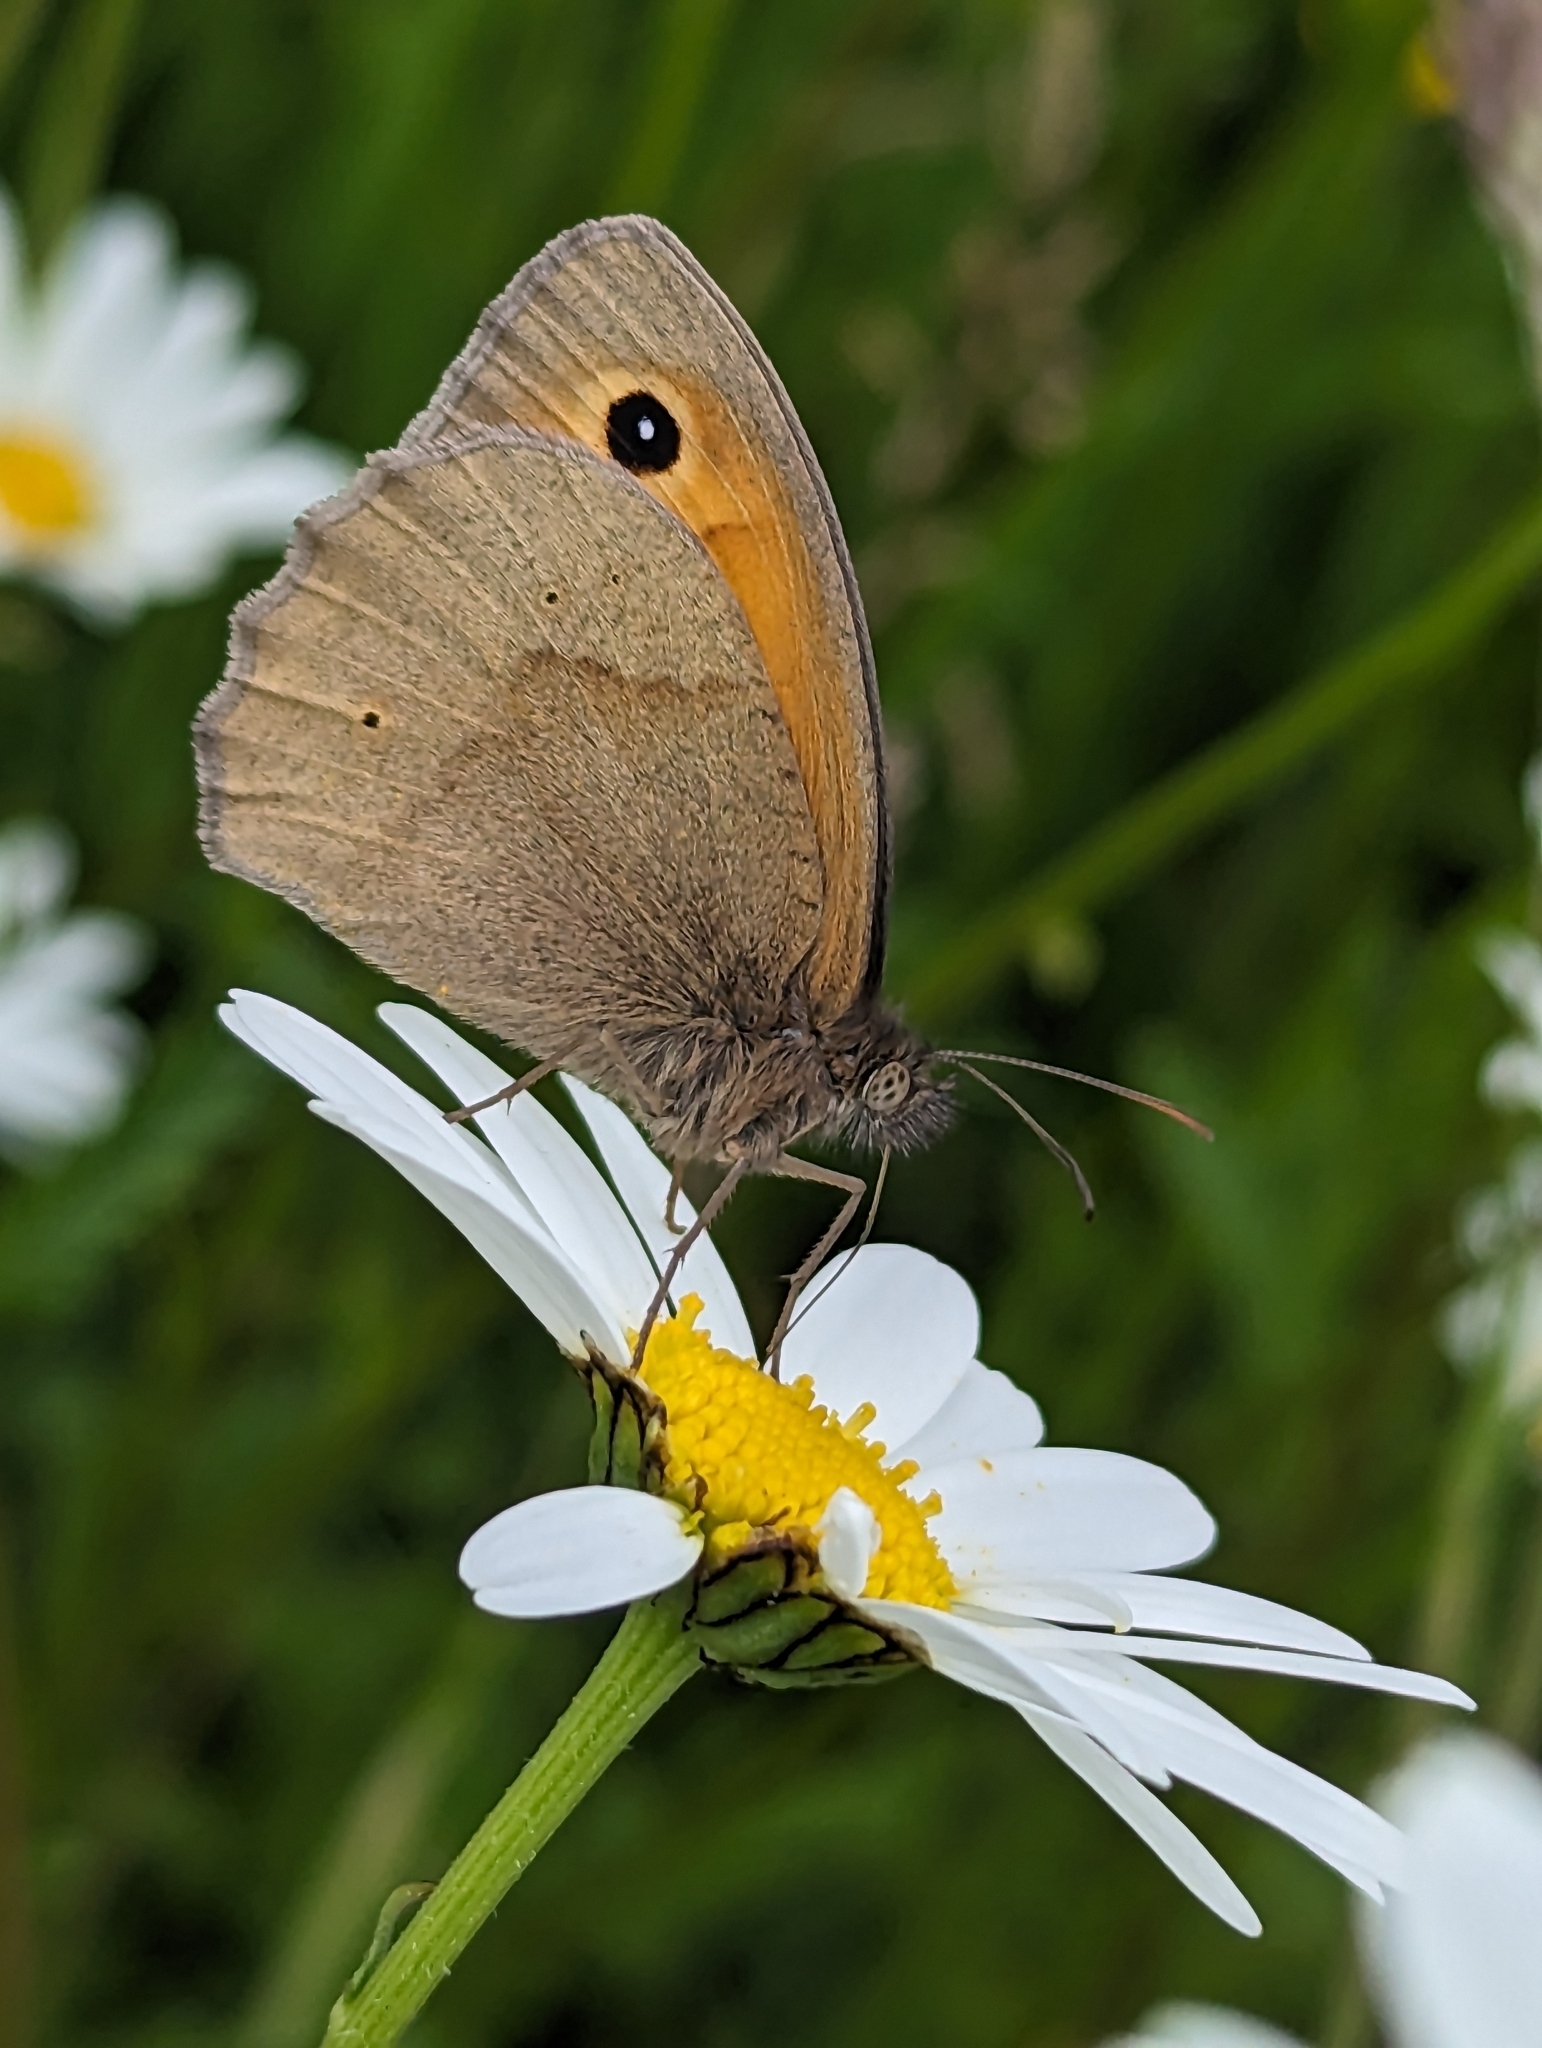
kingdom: Animalia
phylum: Arthropoda
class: Insecta
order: Lepidoptera
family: Nymphalidae
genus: Maniola
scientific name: Maniola jurtina
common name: Meadow brown
